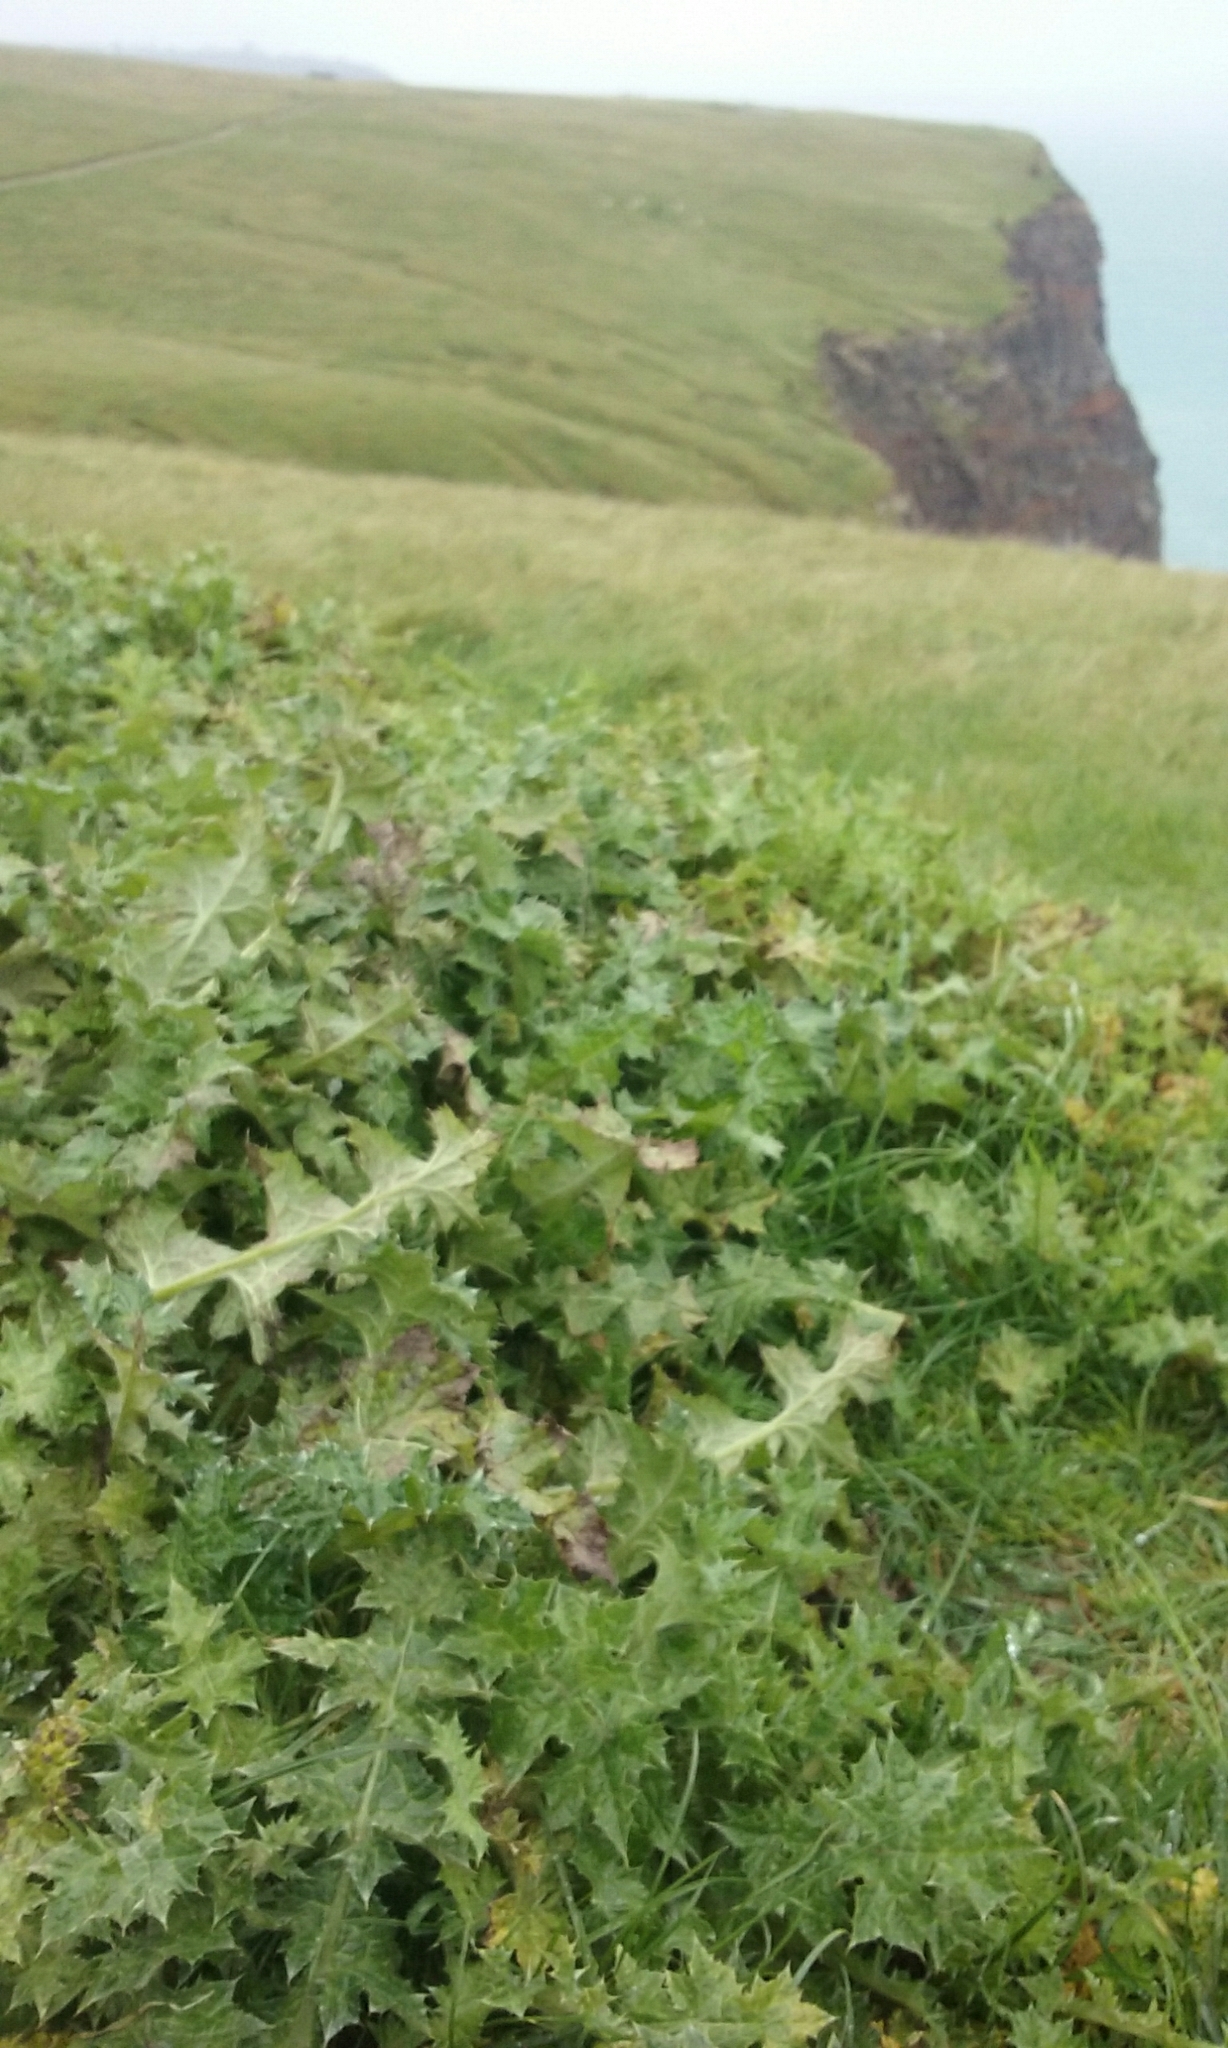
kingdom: Plantae
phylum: Tracheophyta
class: Magnoliopsida
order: Asterales
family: Asteraceae
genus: Silybum
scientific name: Silybum marianum
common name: Milk thistle
